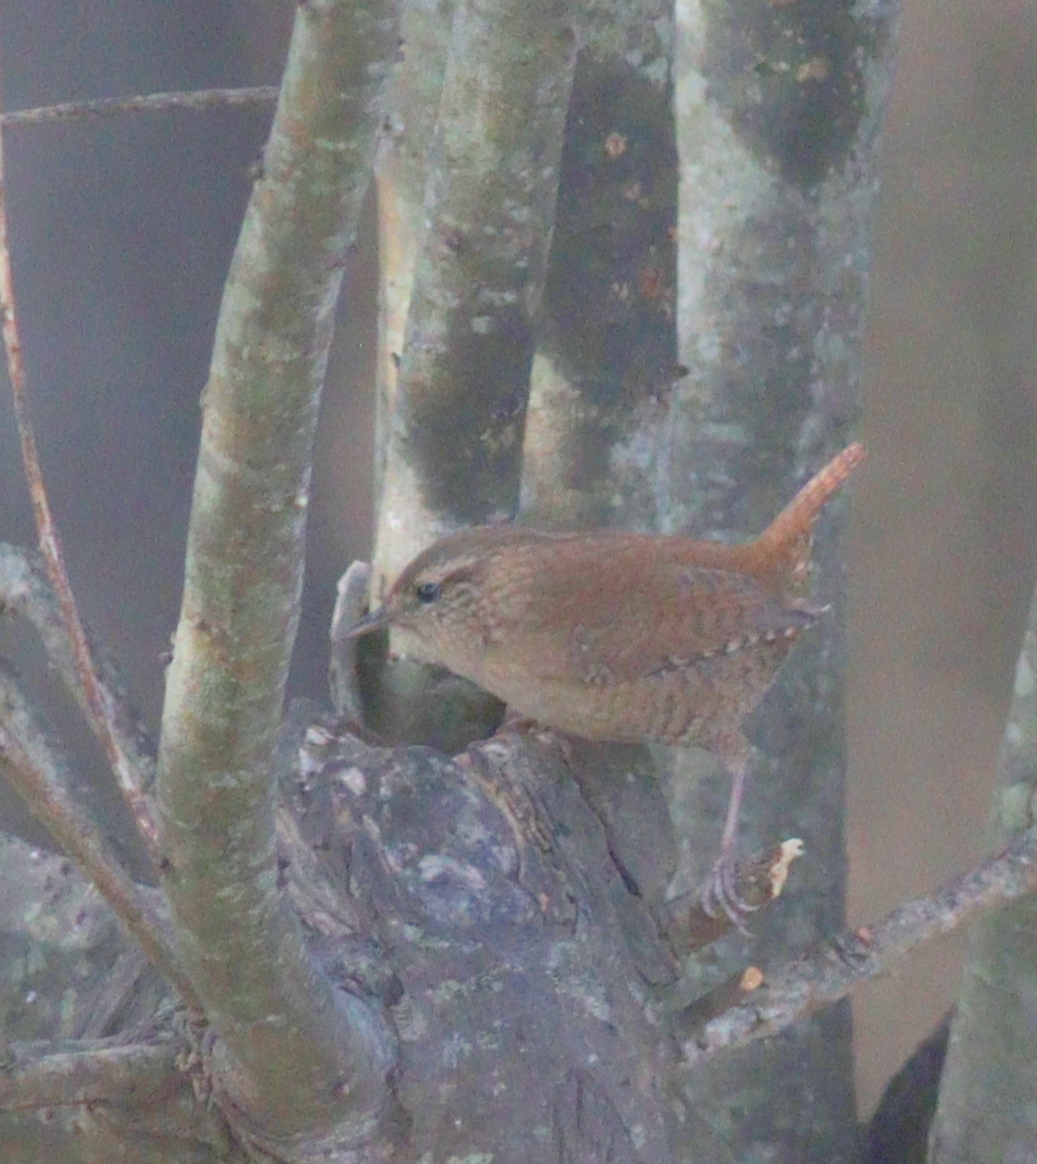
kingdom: Animalia
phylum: Chordata
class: Aves
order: Passeriformes
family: Troglodytidae
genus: Troglodytes
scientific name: Troglodytes troglodytes
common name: Eurasian wren
